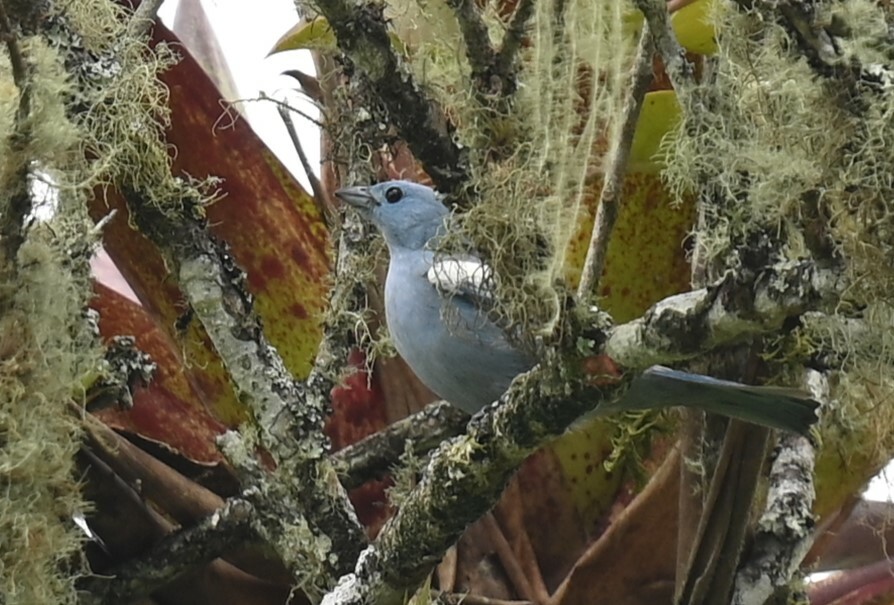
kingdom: Animalia
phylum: Chordata
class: Aves
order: Passeriformes
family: Thraupidae
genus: Thraupis
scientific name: Thraupis episcopus
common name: Blue-grey tanager
